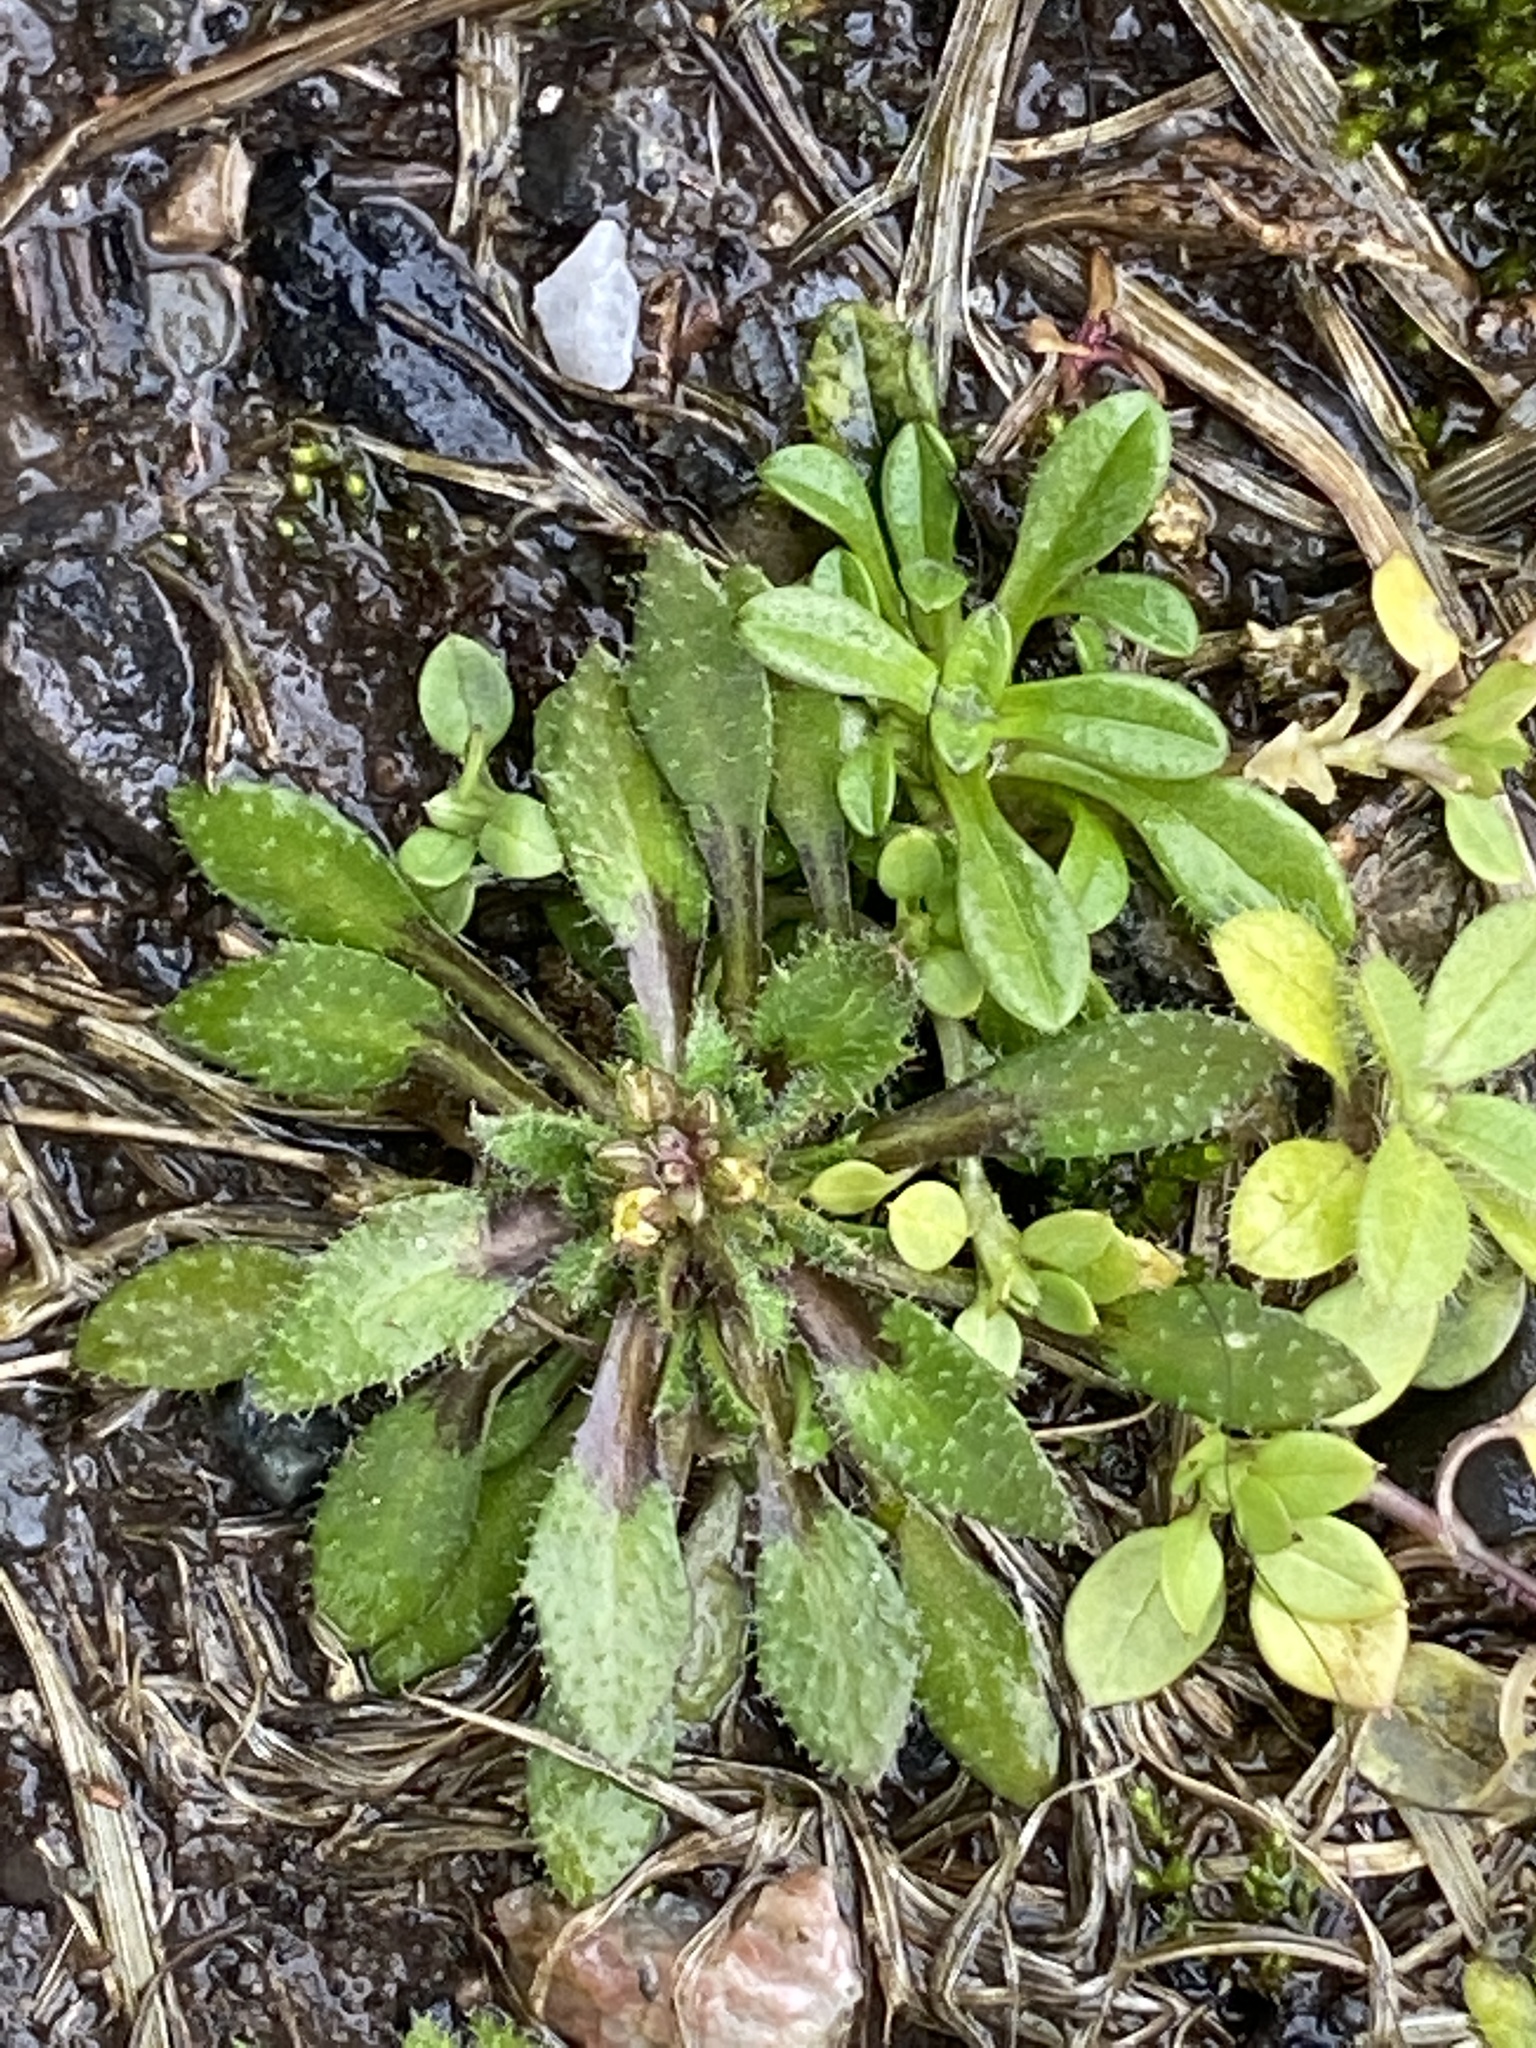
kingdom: Plantae
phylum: Tracheophyta
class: Magnoliopsida
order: Brassicales
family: Brassicaceae
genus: Draba
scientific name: Draba verna
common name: Spring draba
